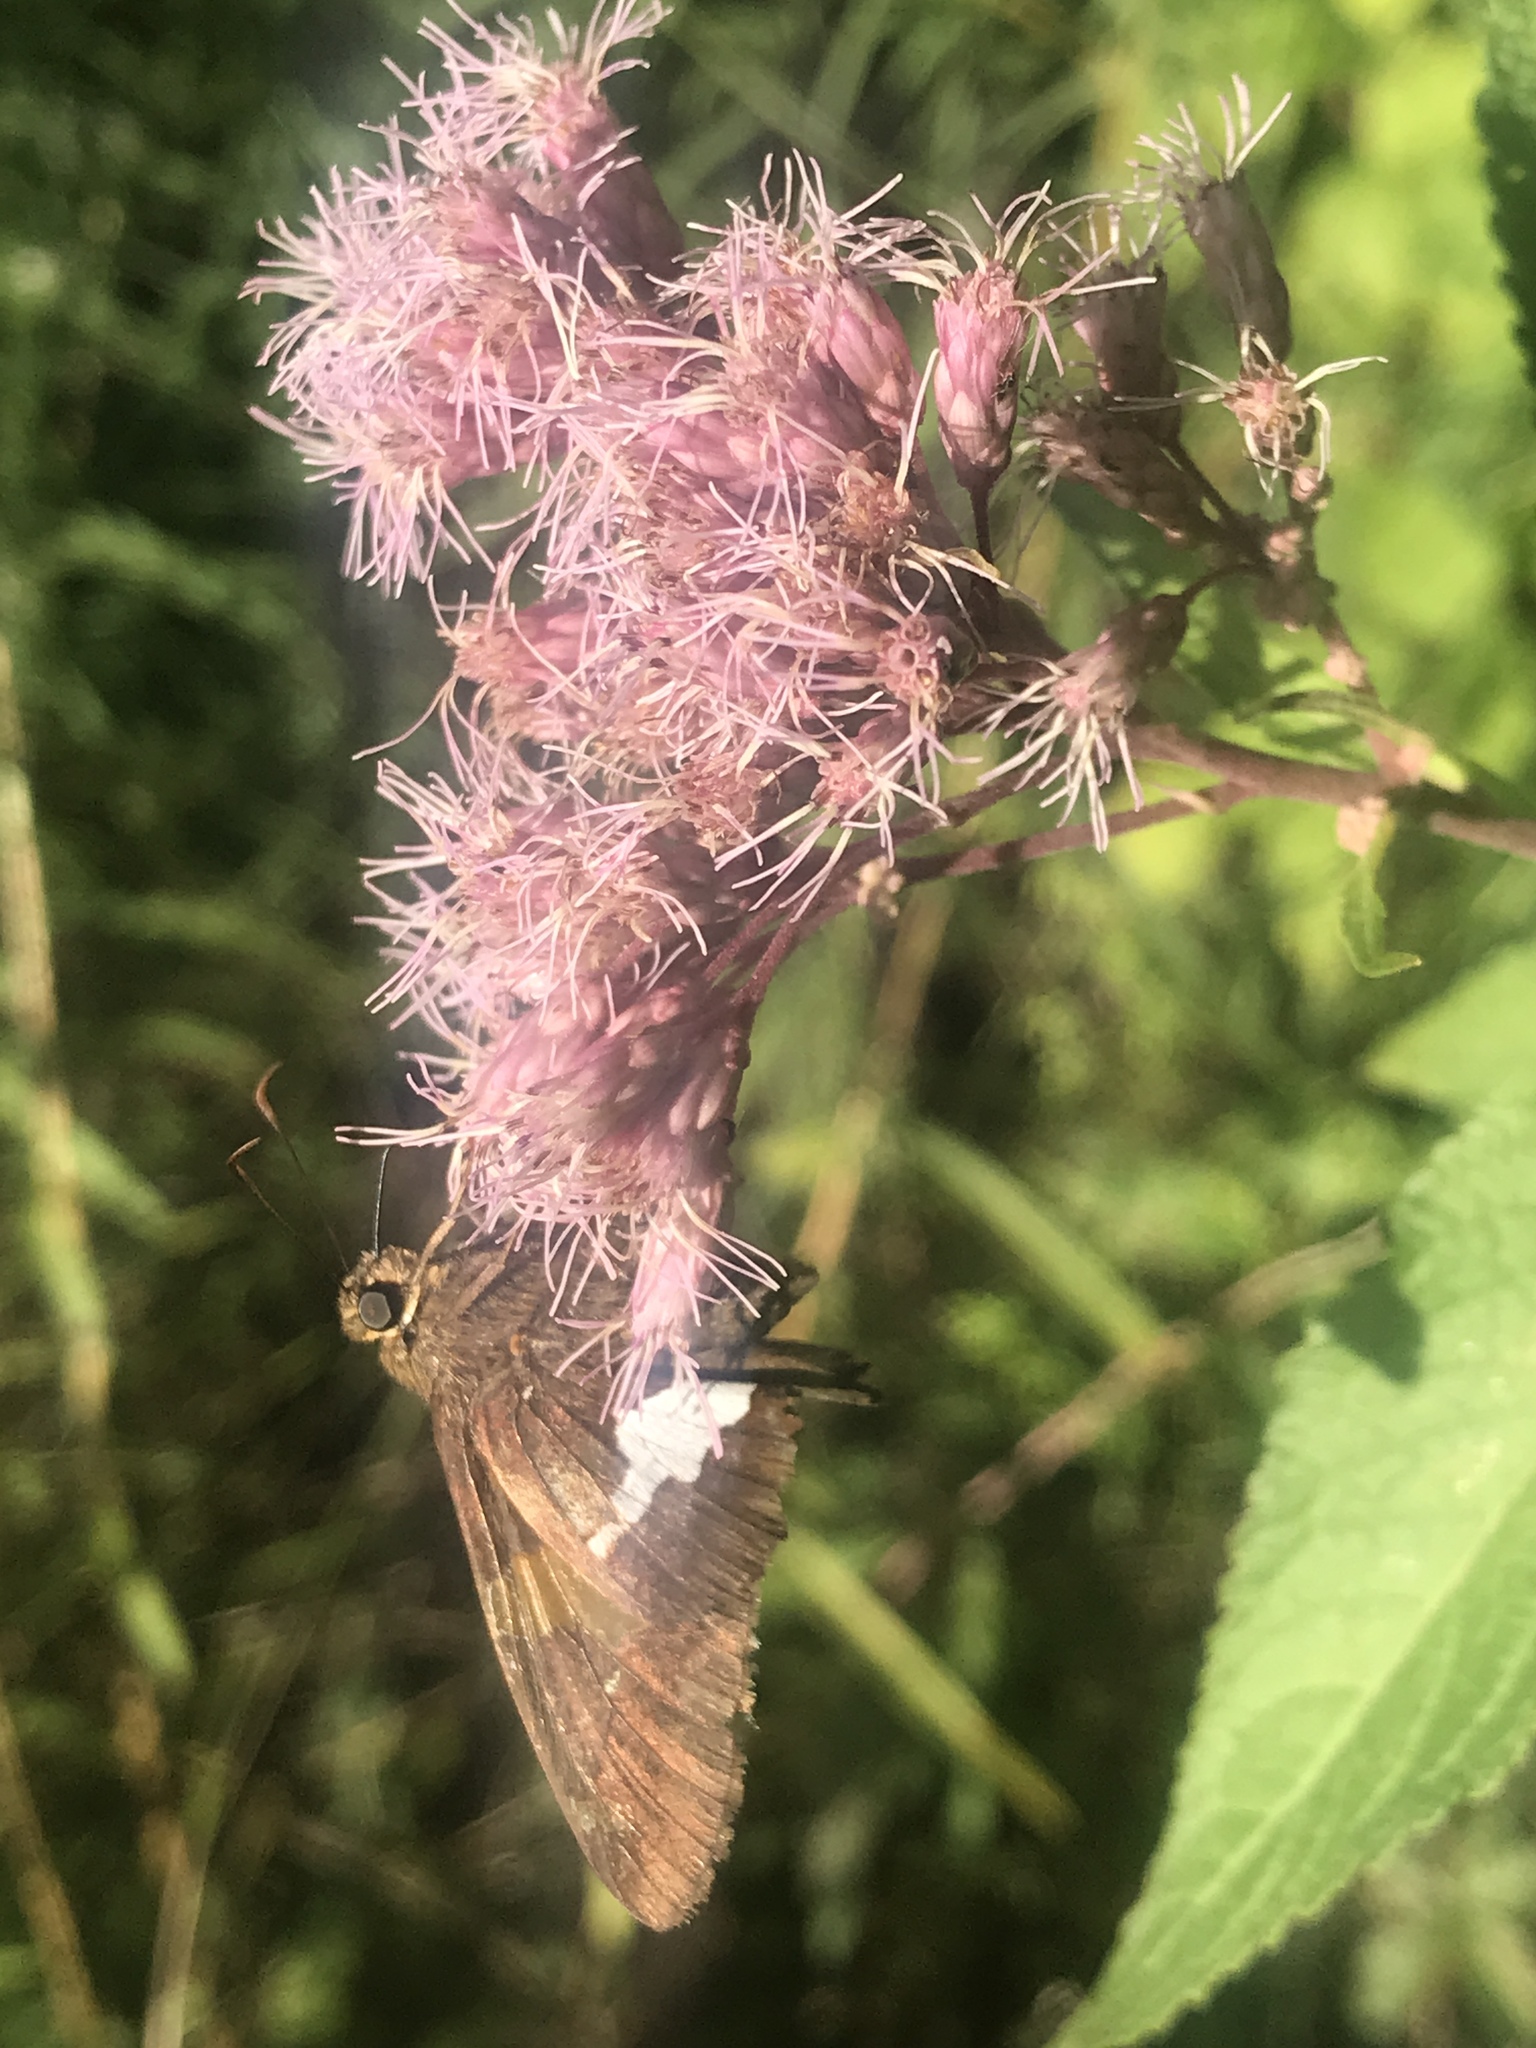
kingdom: Animalia
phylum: Arthropoda
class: Insecta
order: Lepidoptera
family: Hesperiidae
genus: Epargyreus
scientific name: Epargyreus clarus
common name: Silver-spotted skipper
